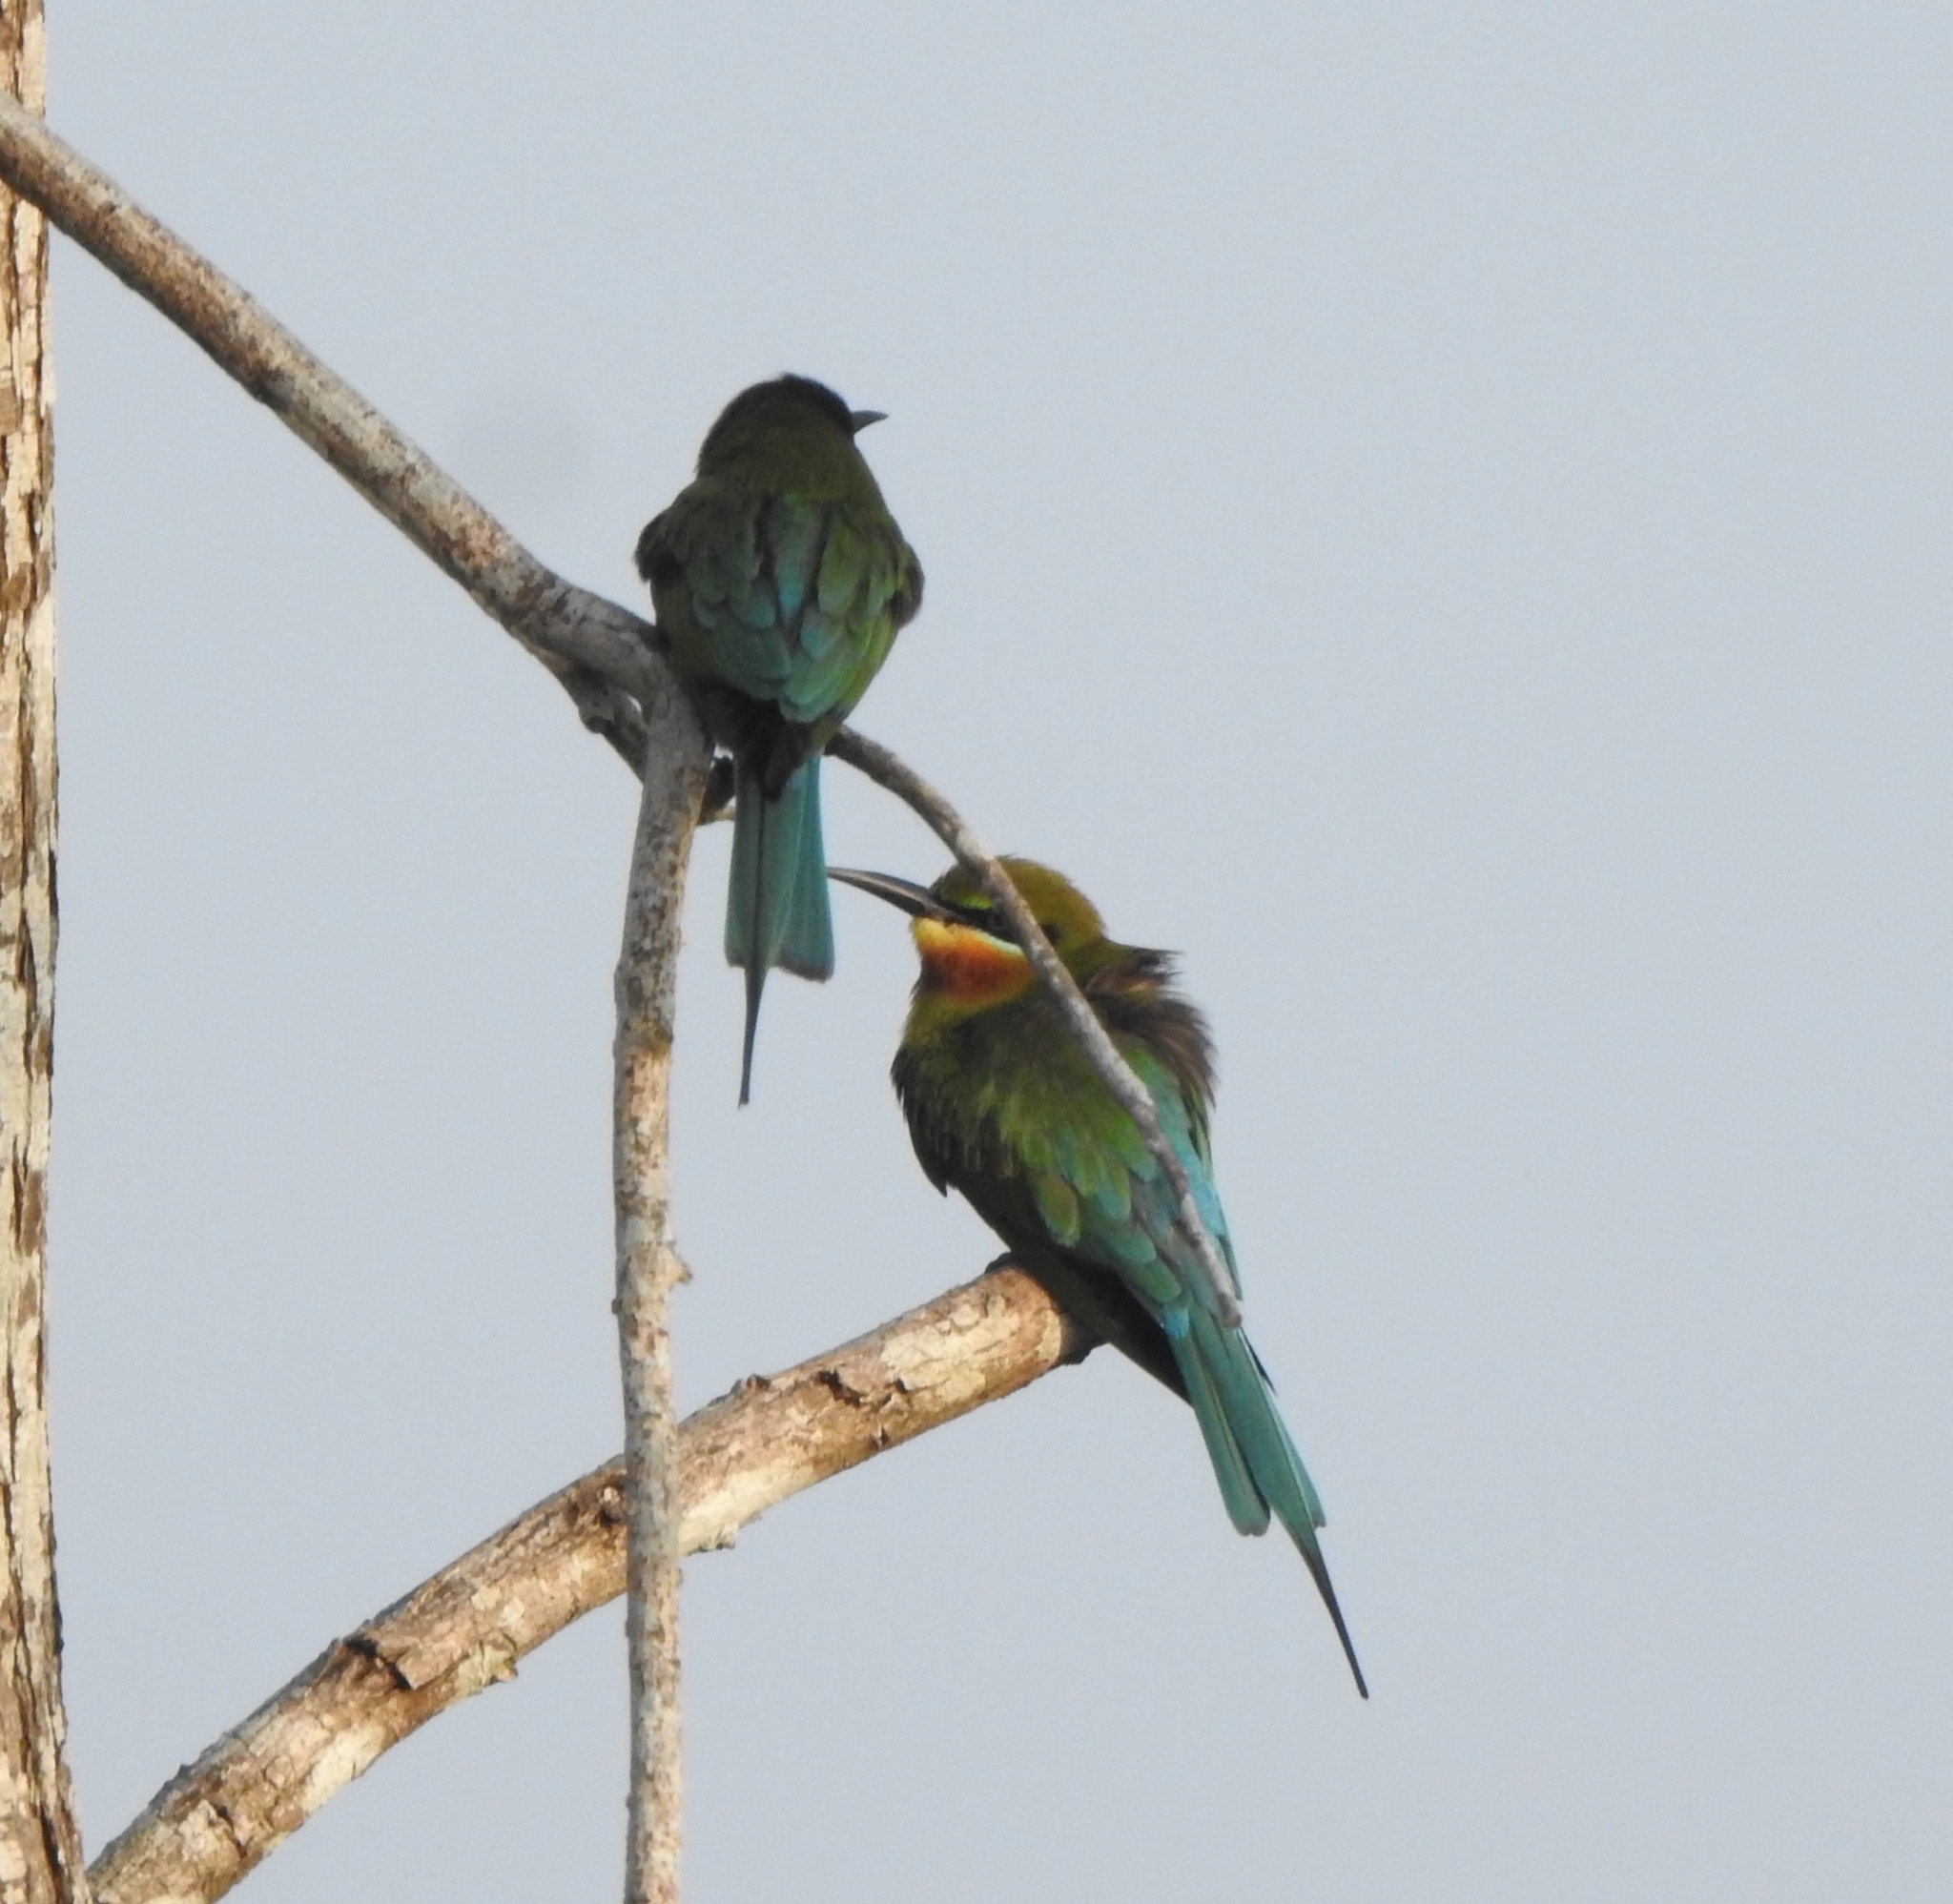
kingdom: Animalia
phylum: Chordata
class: Aves
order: Coraciiformes
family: Meropidae
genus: Merops
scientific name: Merops philippinus
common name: Blue-tailed bee-eater
